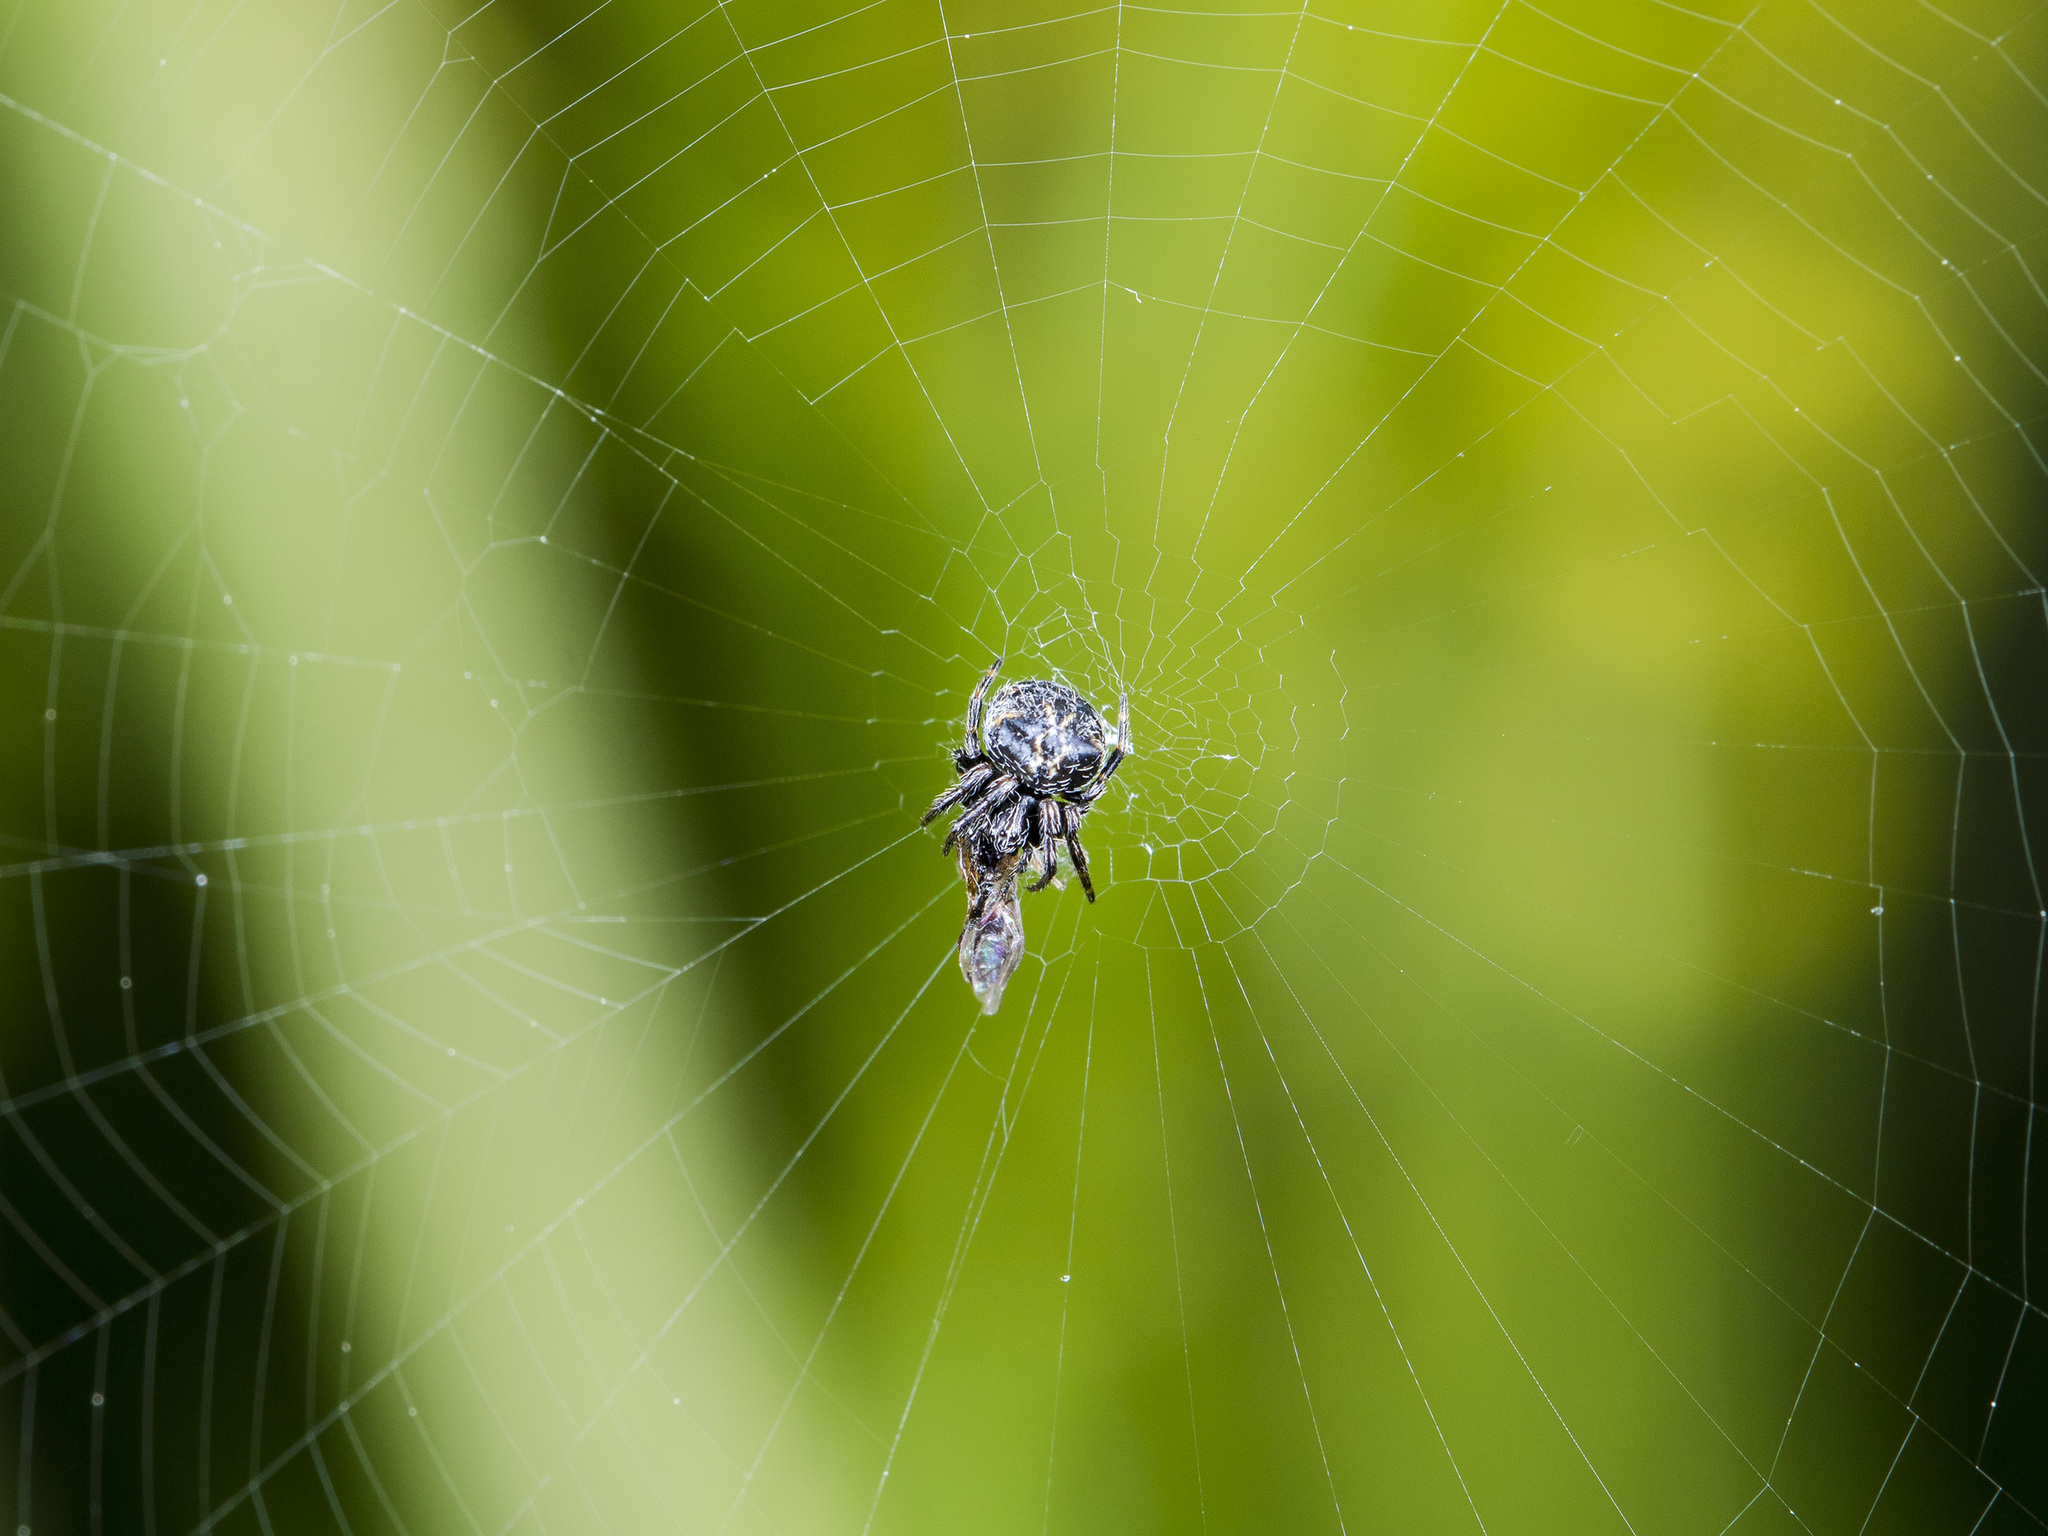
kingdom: Animalia
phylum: Arthropoda
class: Arachnida
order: Araneae
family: Araneidae
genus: Araneus
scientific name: Araneus grossus
